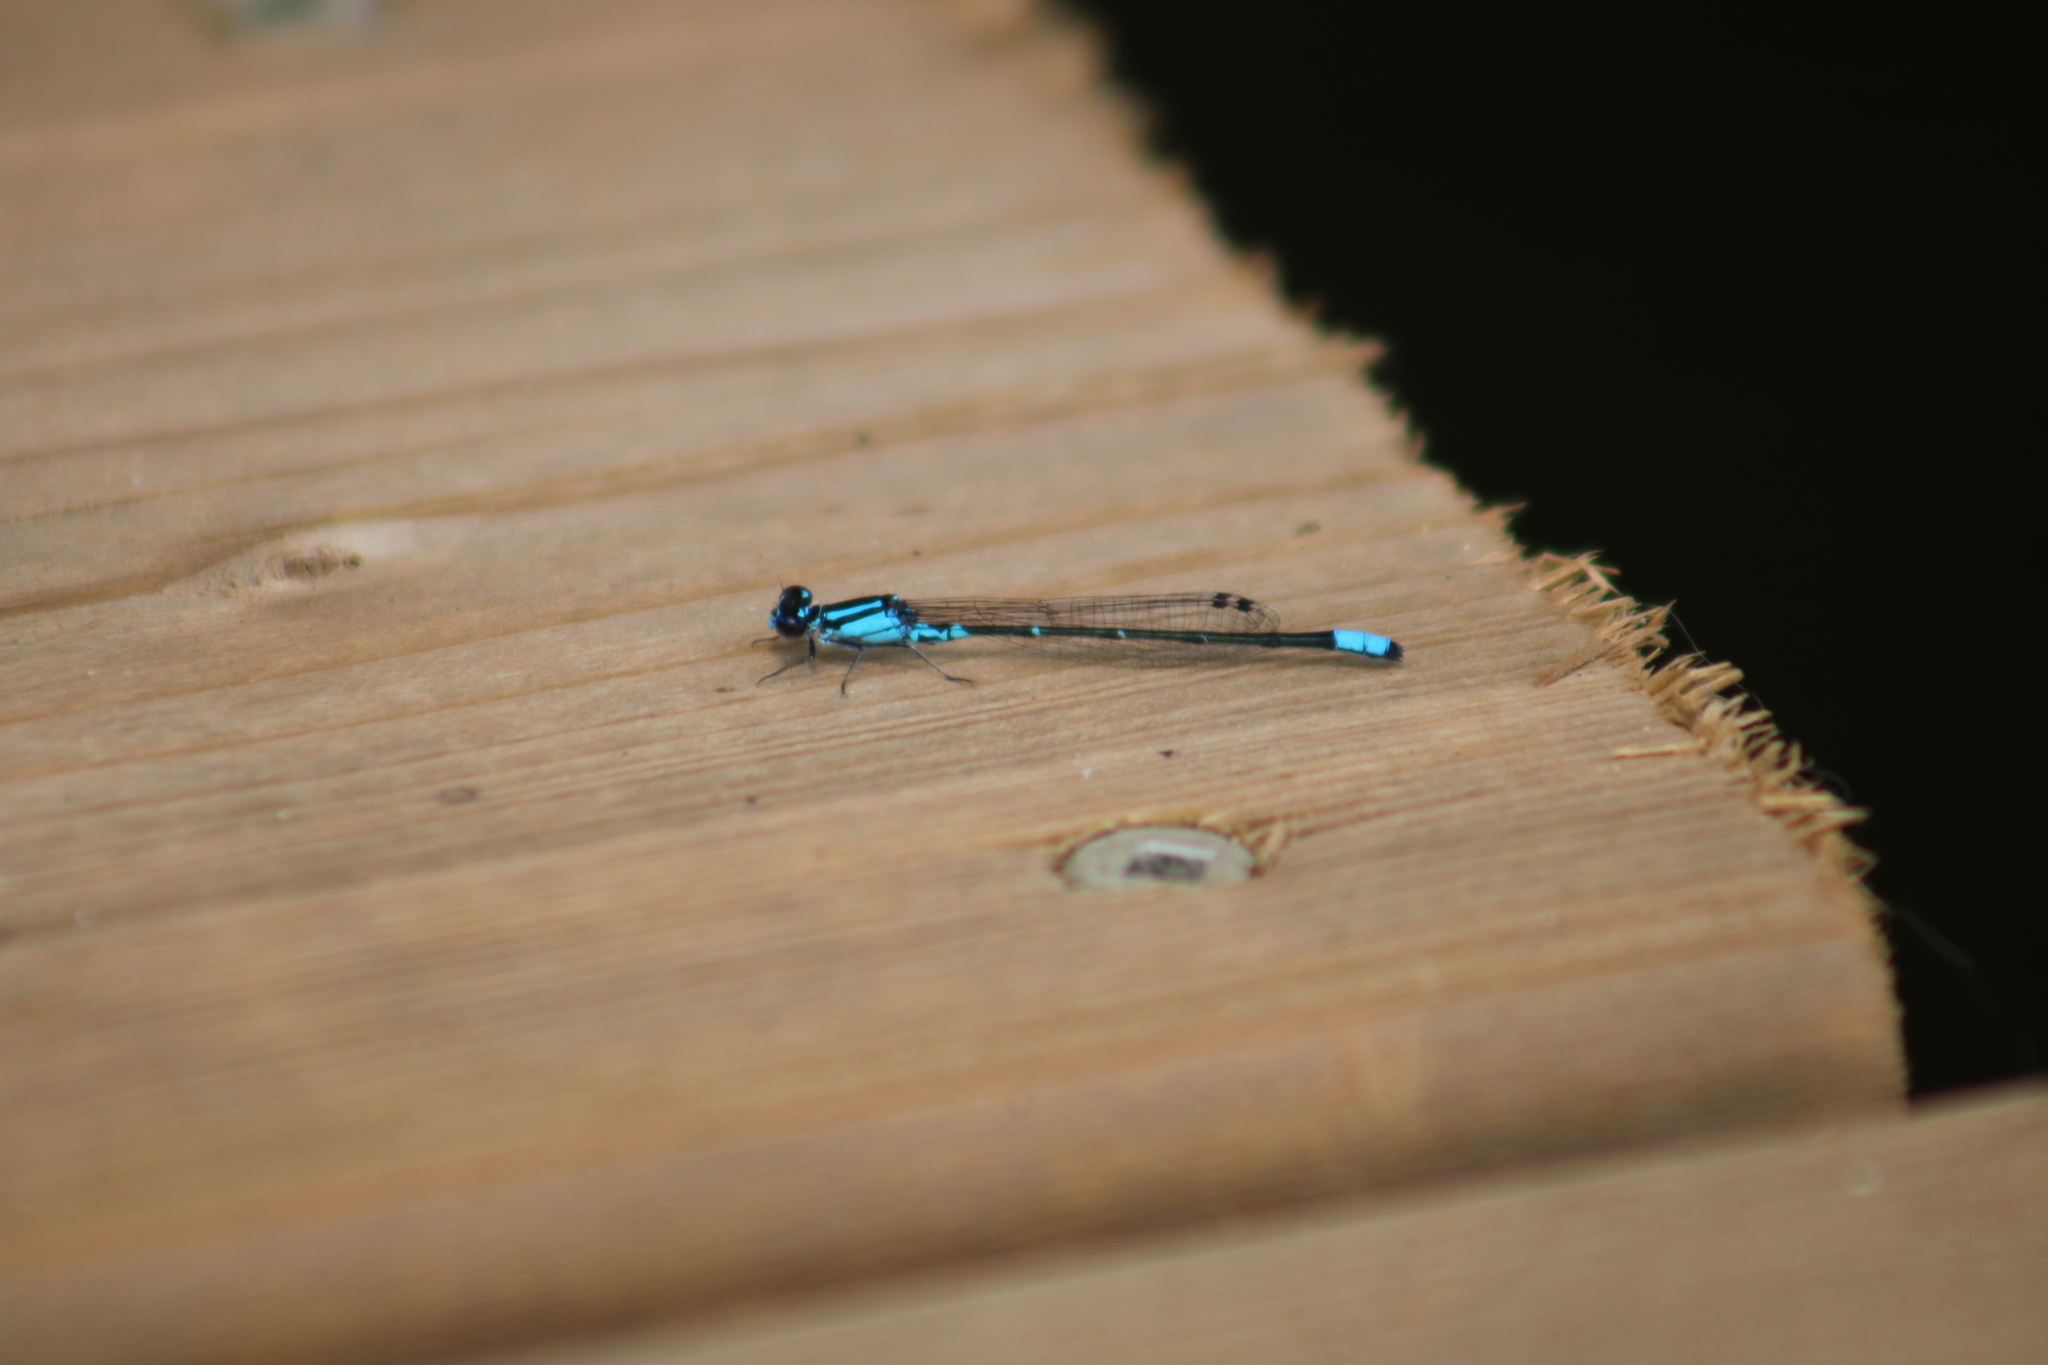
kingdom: Animalia
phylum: Arthropoda
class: Insecta
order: Odonata
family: Coenagrionidae
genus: Enallagma
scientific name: Enallagma geminatum
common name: Skimming bluet
